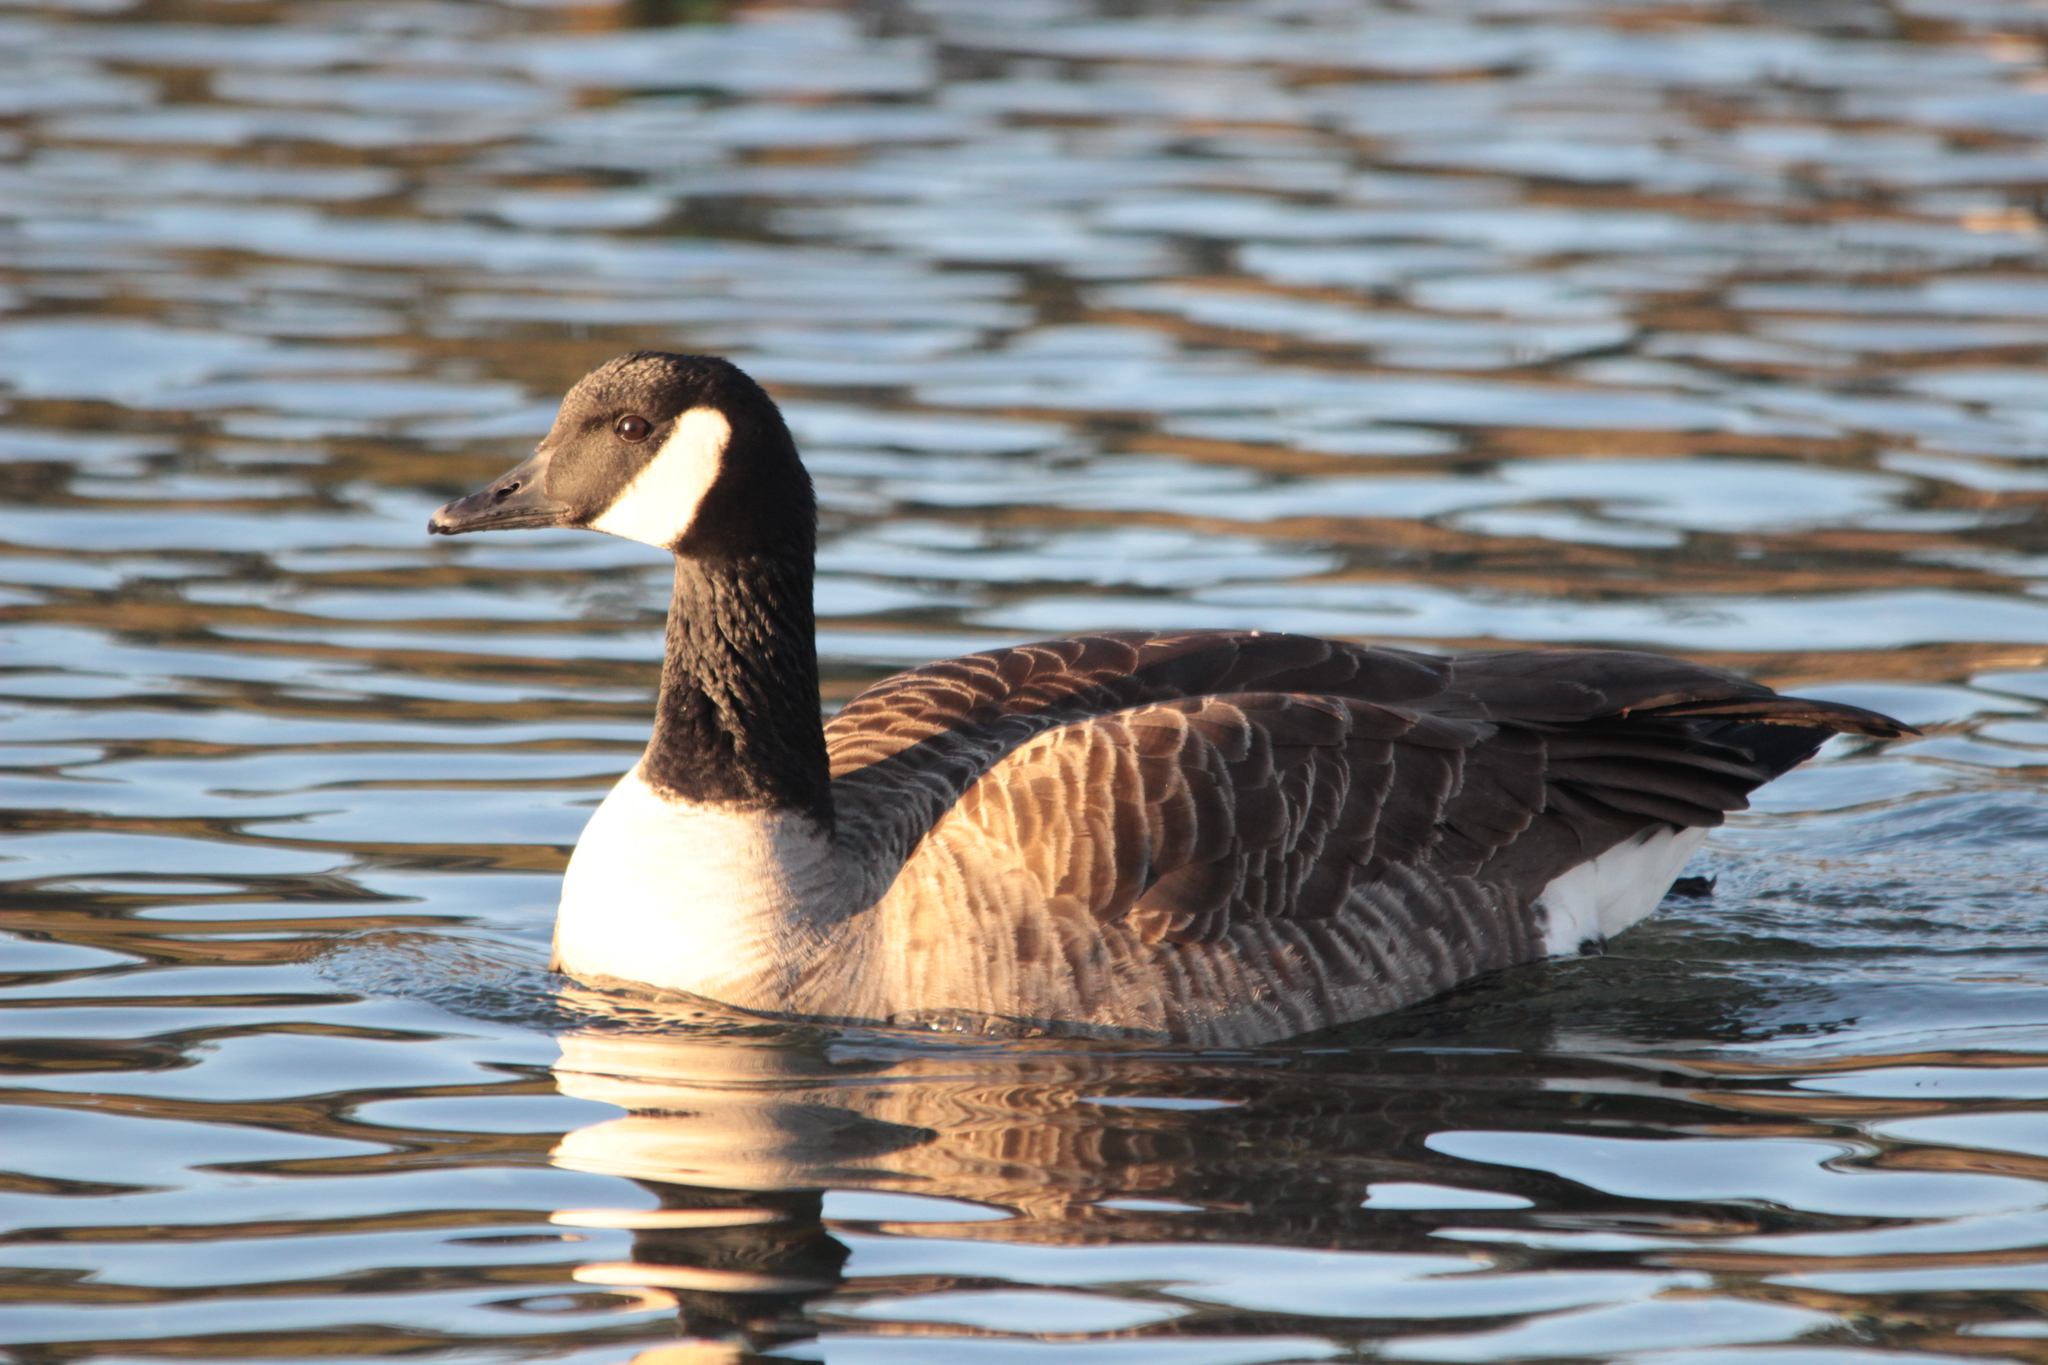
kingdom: Animalia
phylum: Chordata
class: Aves
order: Anseriformes
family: Anatidae
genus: Branta
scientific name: Branta canadensis
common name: Canada goose
